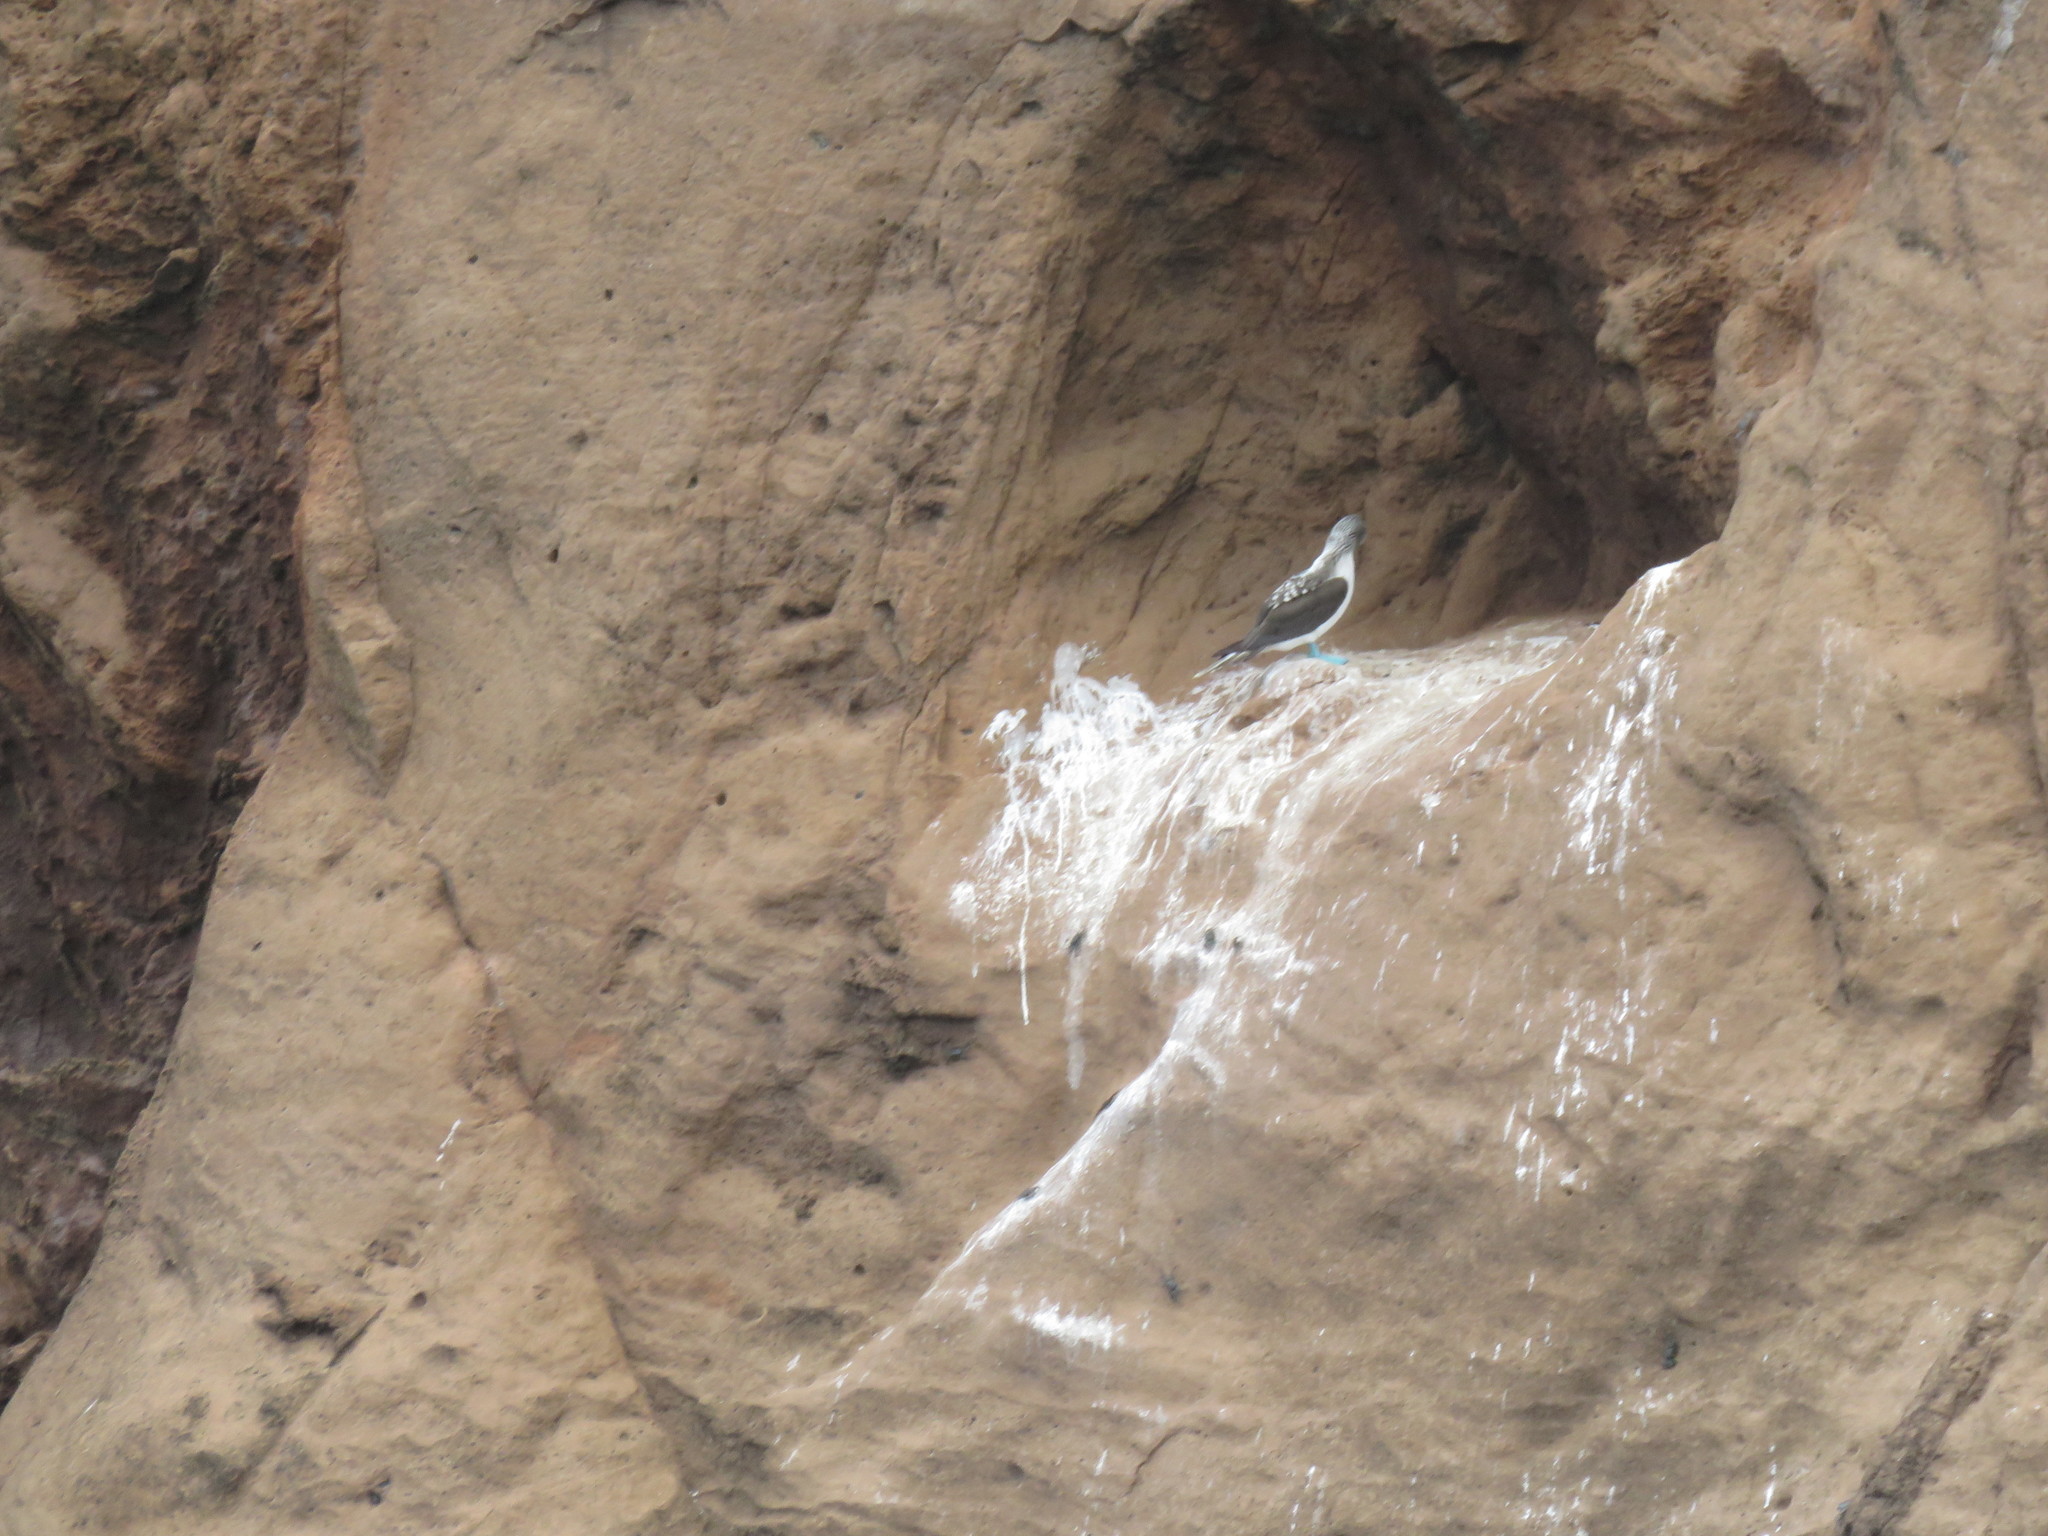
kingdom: Animalia
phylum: Chordata
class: Aves
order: Suliformes
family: Sulidae
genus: Sula
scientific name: Sula nebouxii
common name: Blue-footed booby
